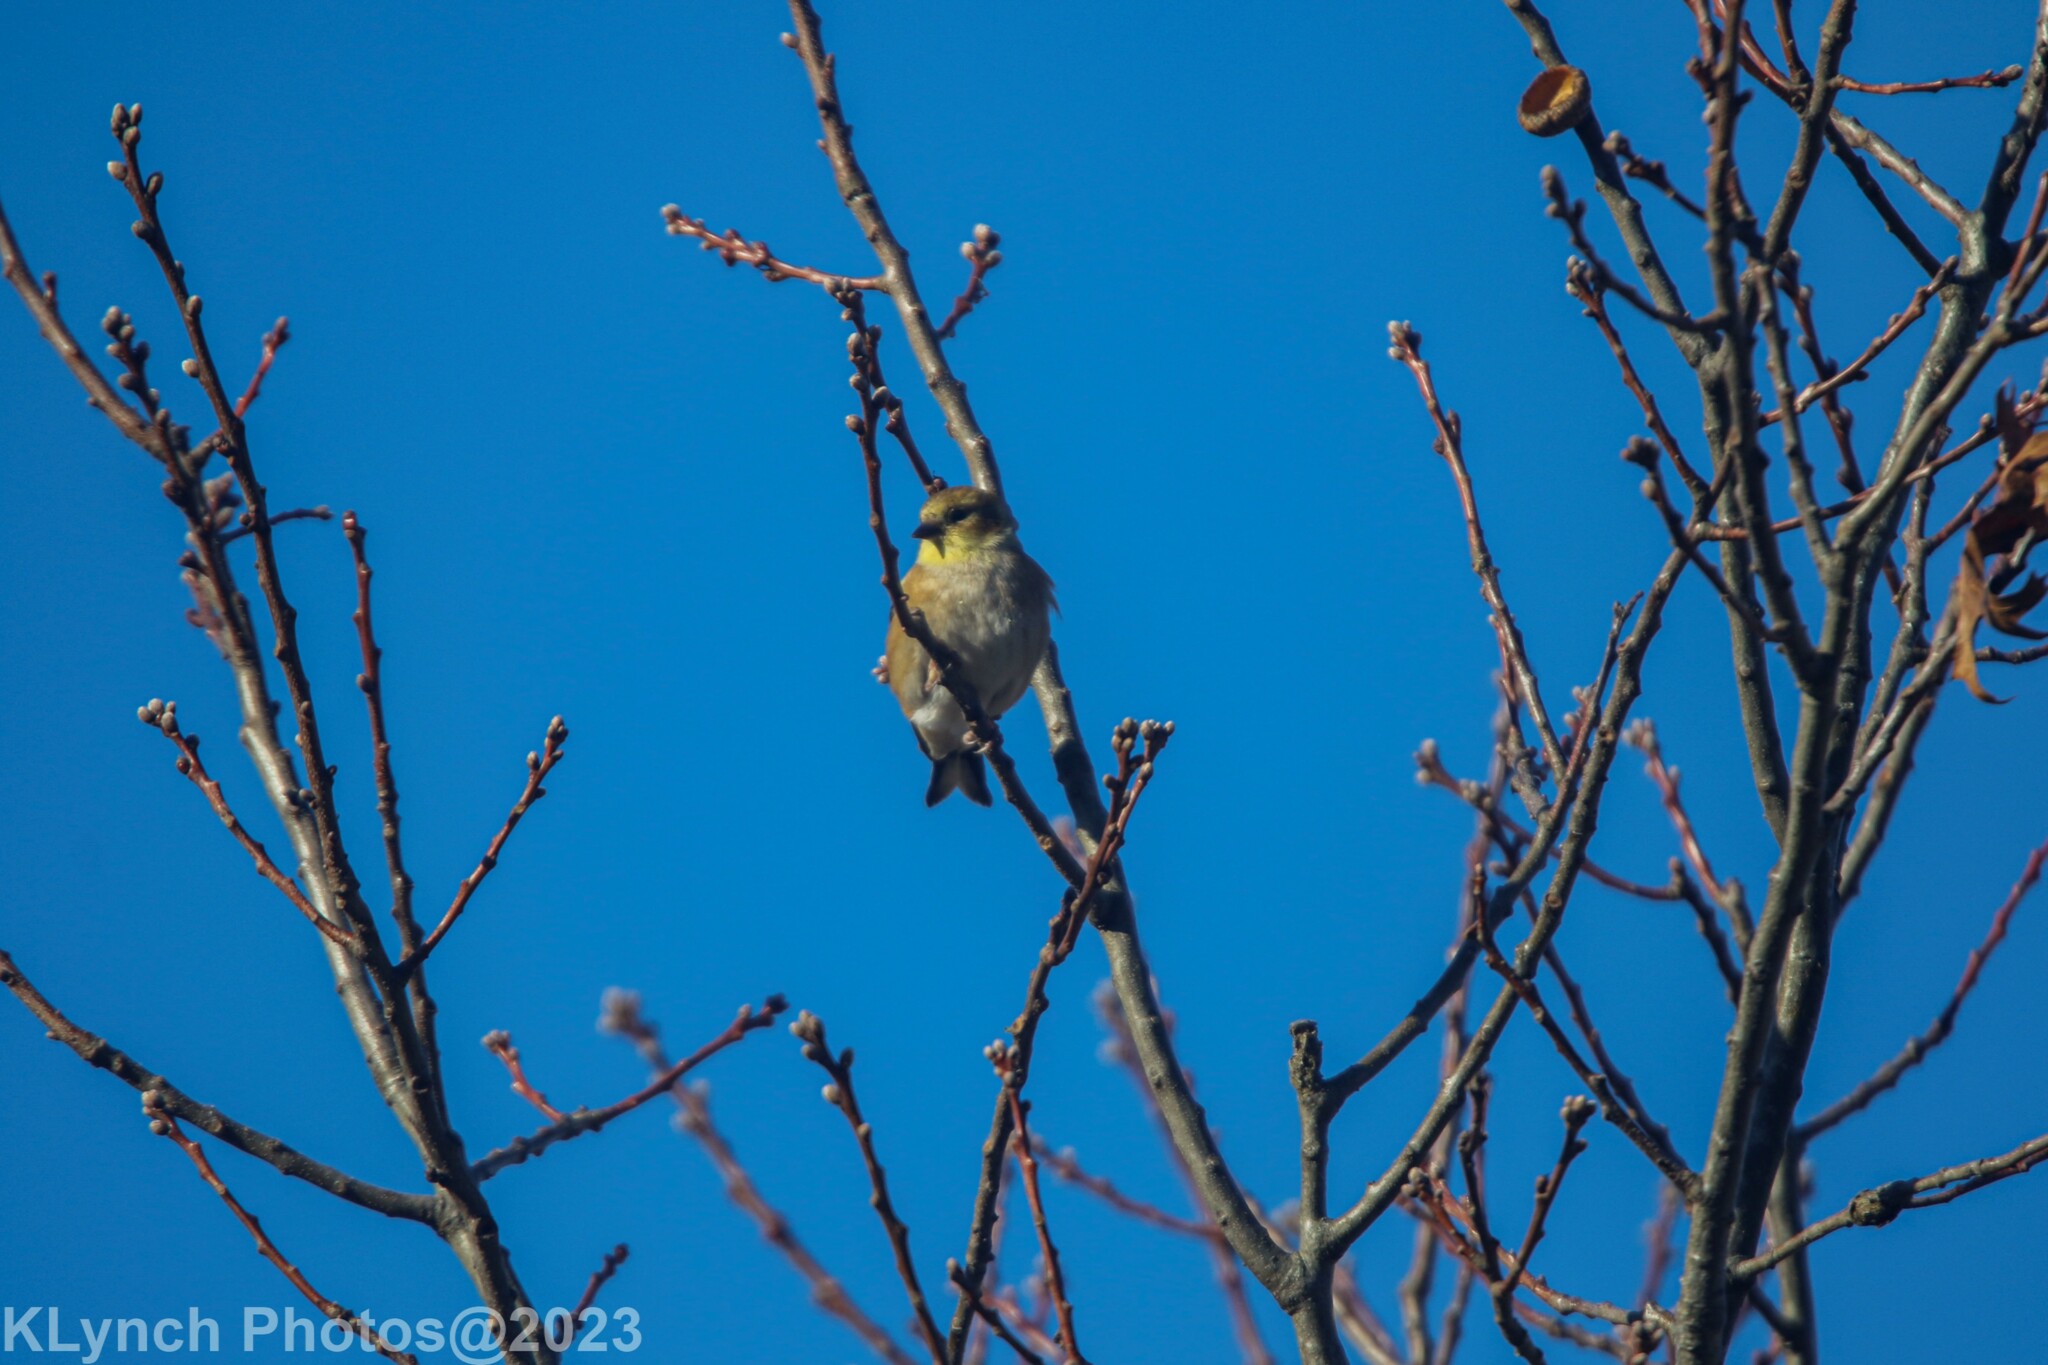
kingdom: Animalia
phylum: Chordata
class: Aves
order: Passeriformes
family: Fringillidae
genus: Spinus
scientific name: Spinus tristis
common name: American goldfinch
